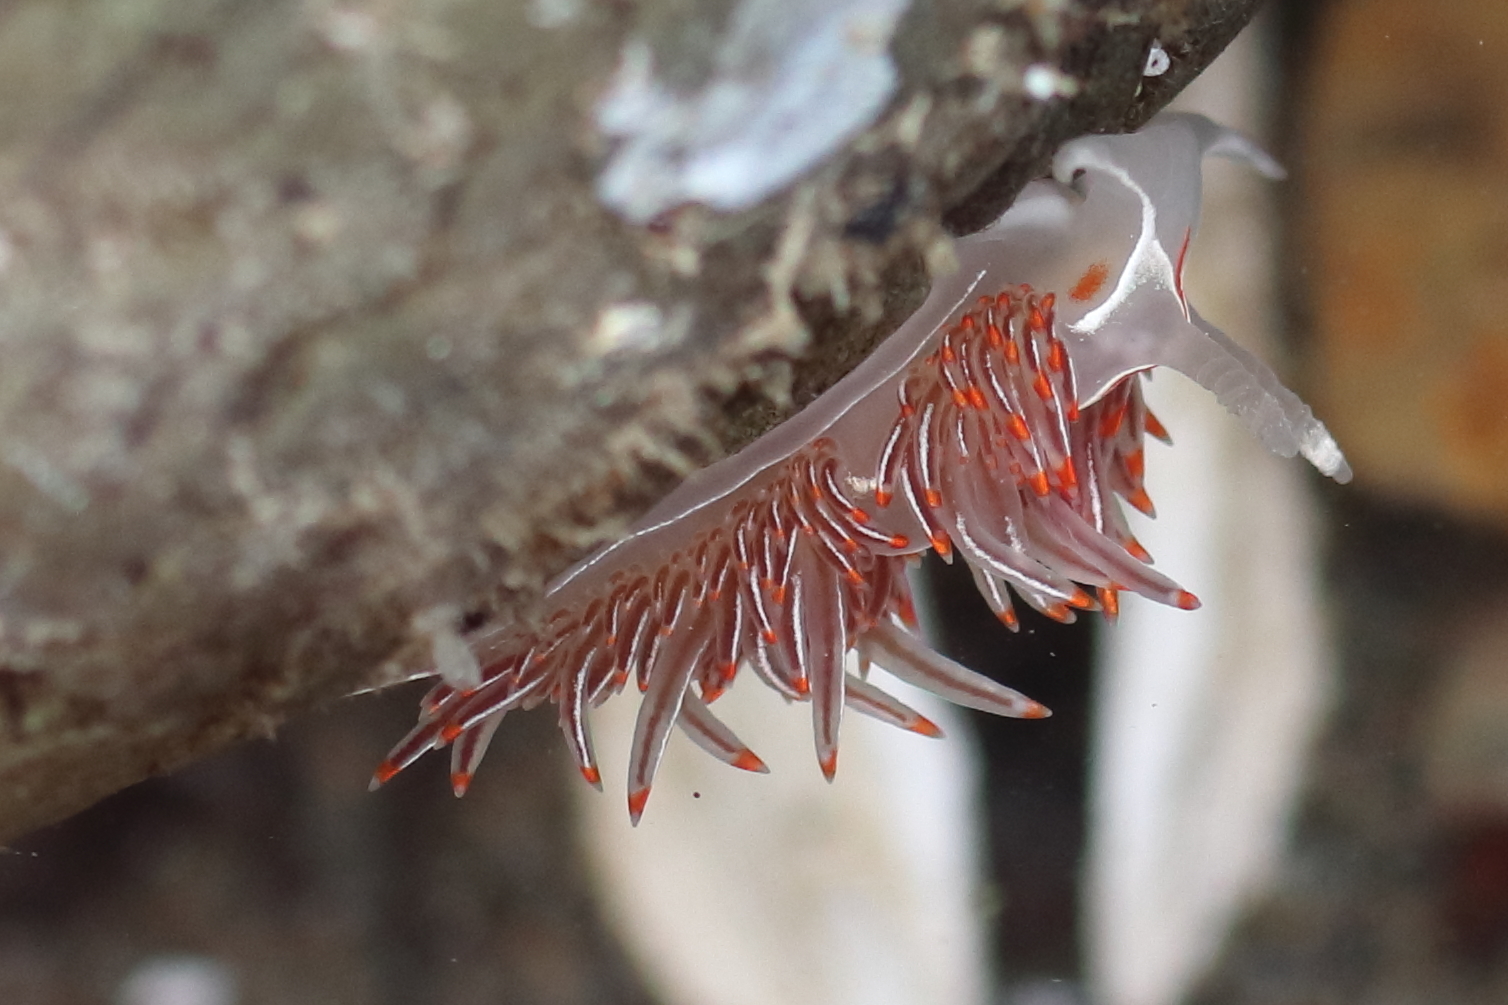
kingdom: Animalia
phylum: Mollusca
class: Gastropoda
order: Nudibranchia
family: Myrrhinidae
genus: Hermissenda
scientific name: Hermissenda crassicornis
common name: Hermissenda
